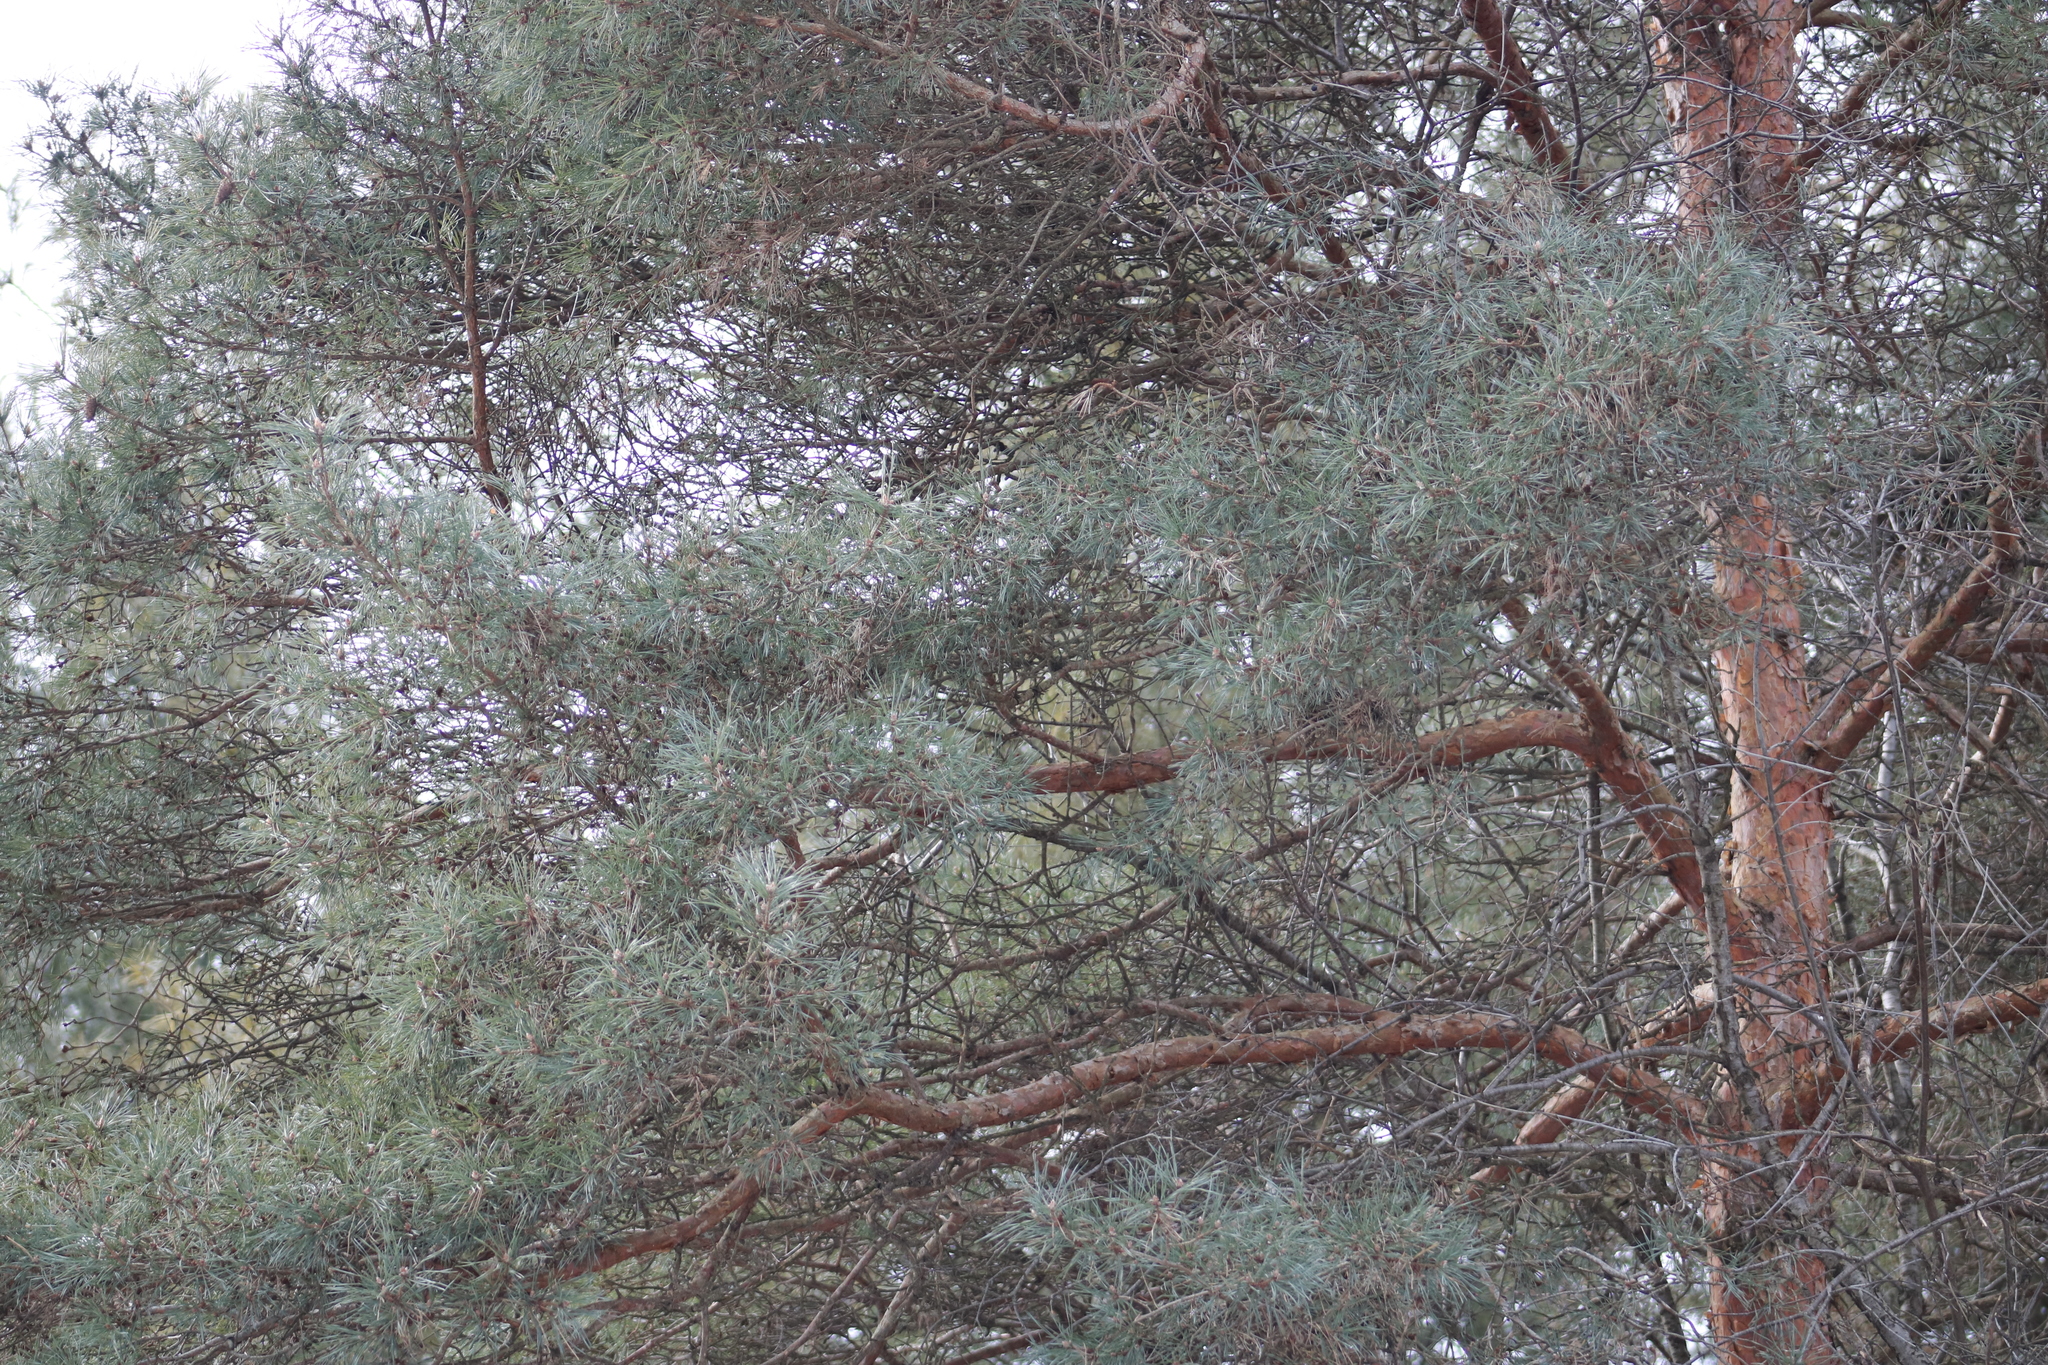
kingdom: Plantae
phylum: Tracheophyta
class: Pinopsida
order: Pinales
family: Pinaceae
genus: Pinus
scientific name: Pinus sylvestris
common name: Scots pine
